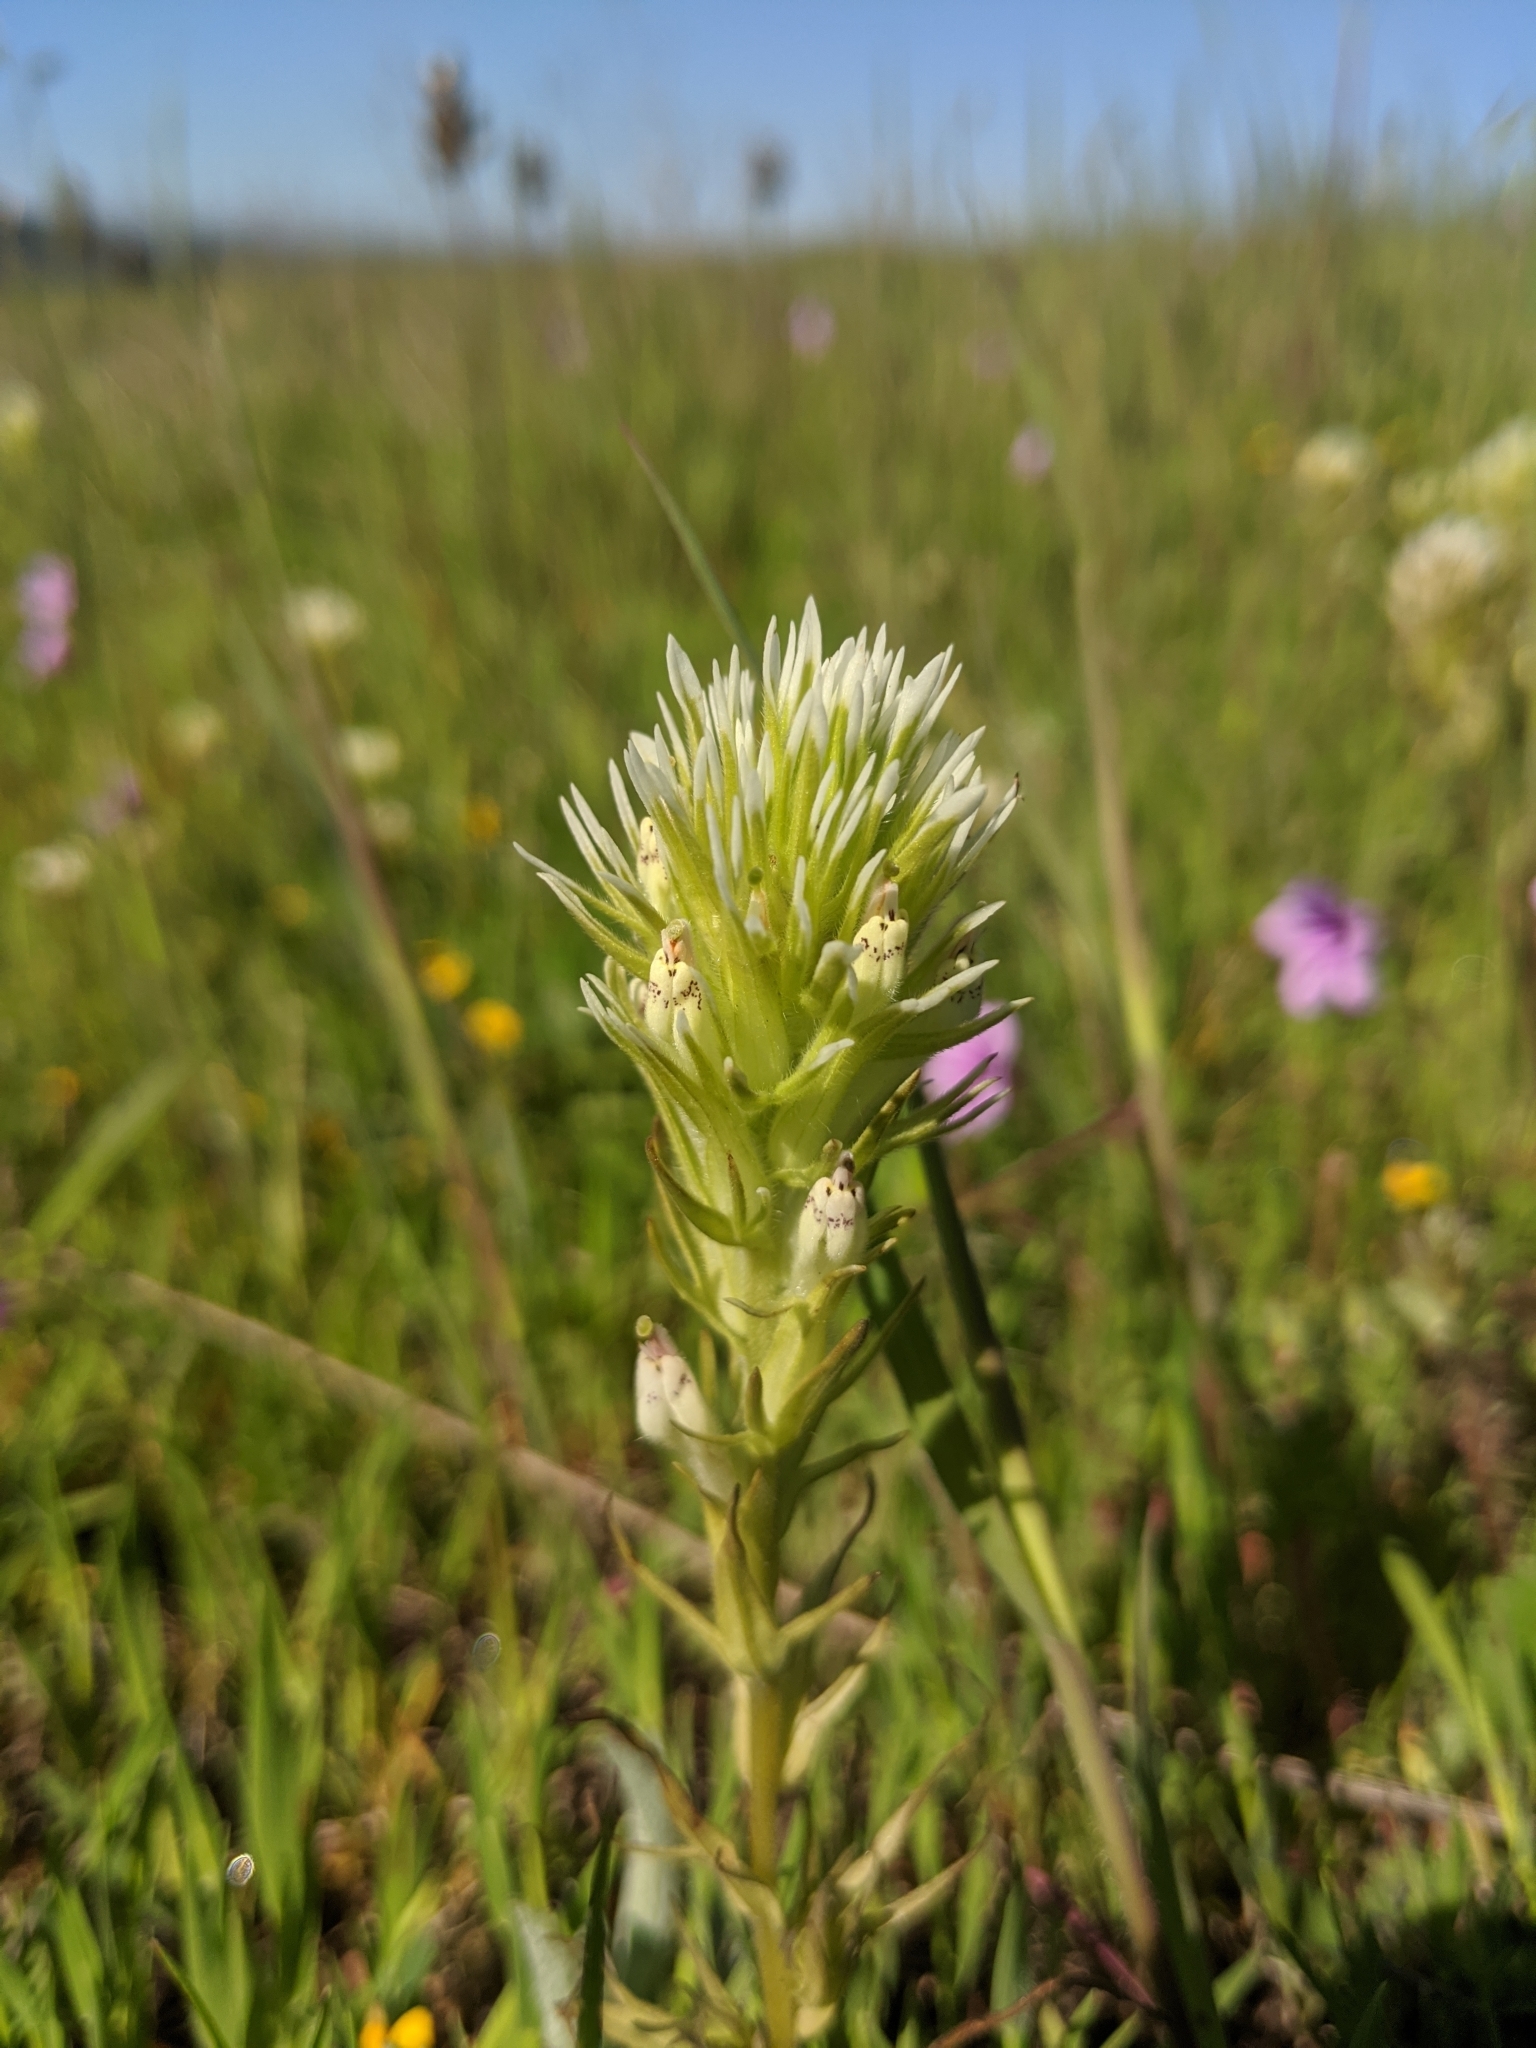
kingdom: Plantae
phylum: Tracheophyta
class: Magnoliopsida
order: Lamiales
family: Orobanchaceae
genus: Castilleja
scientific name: Castilleja densiflora
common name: Dense-flower indian paintbrush
